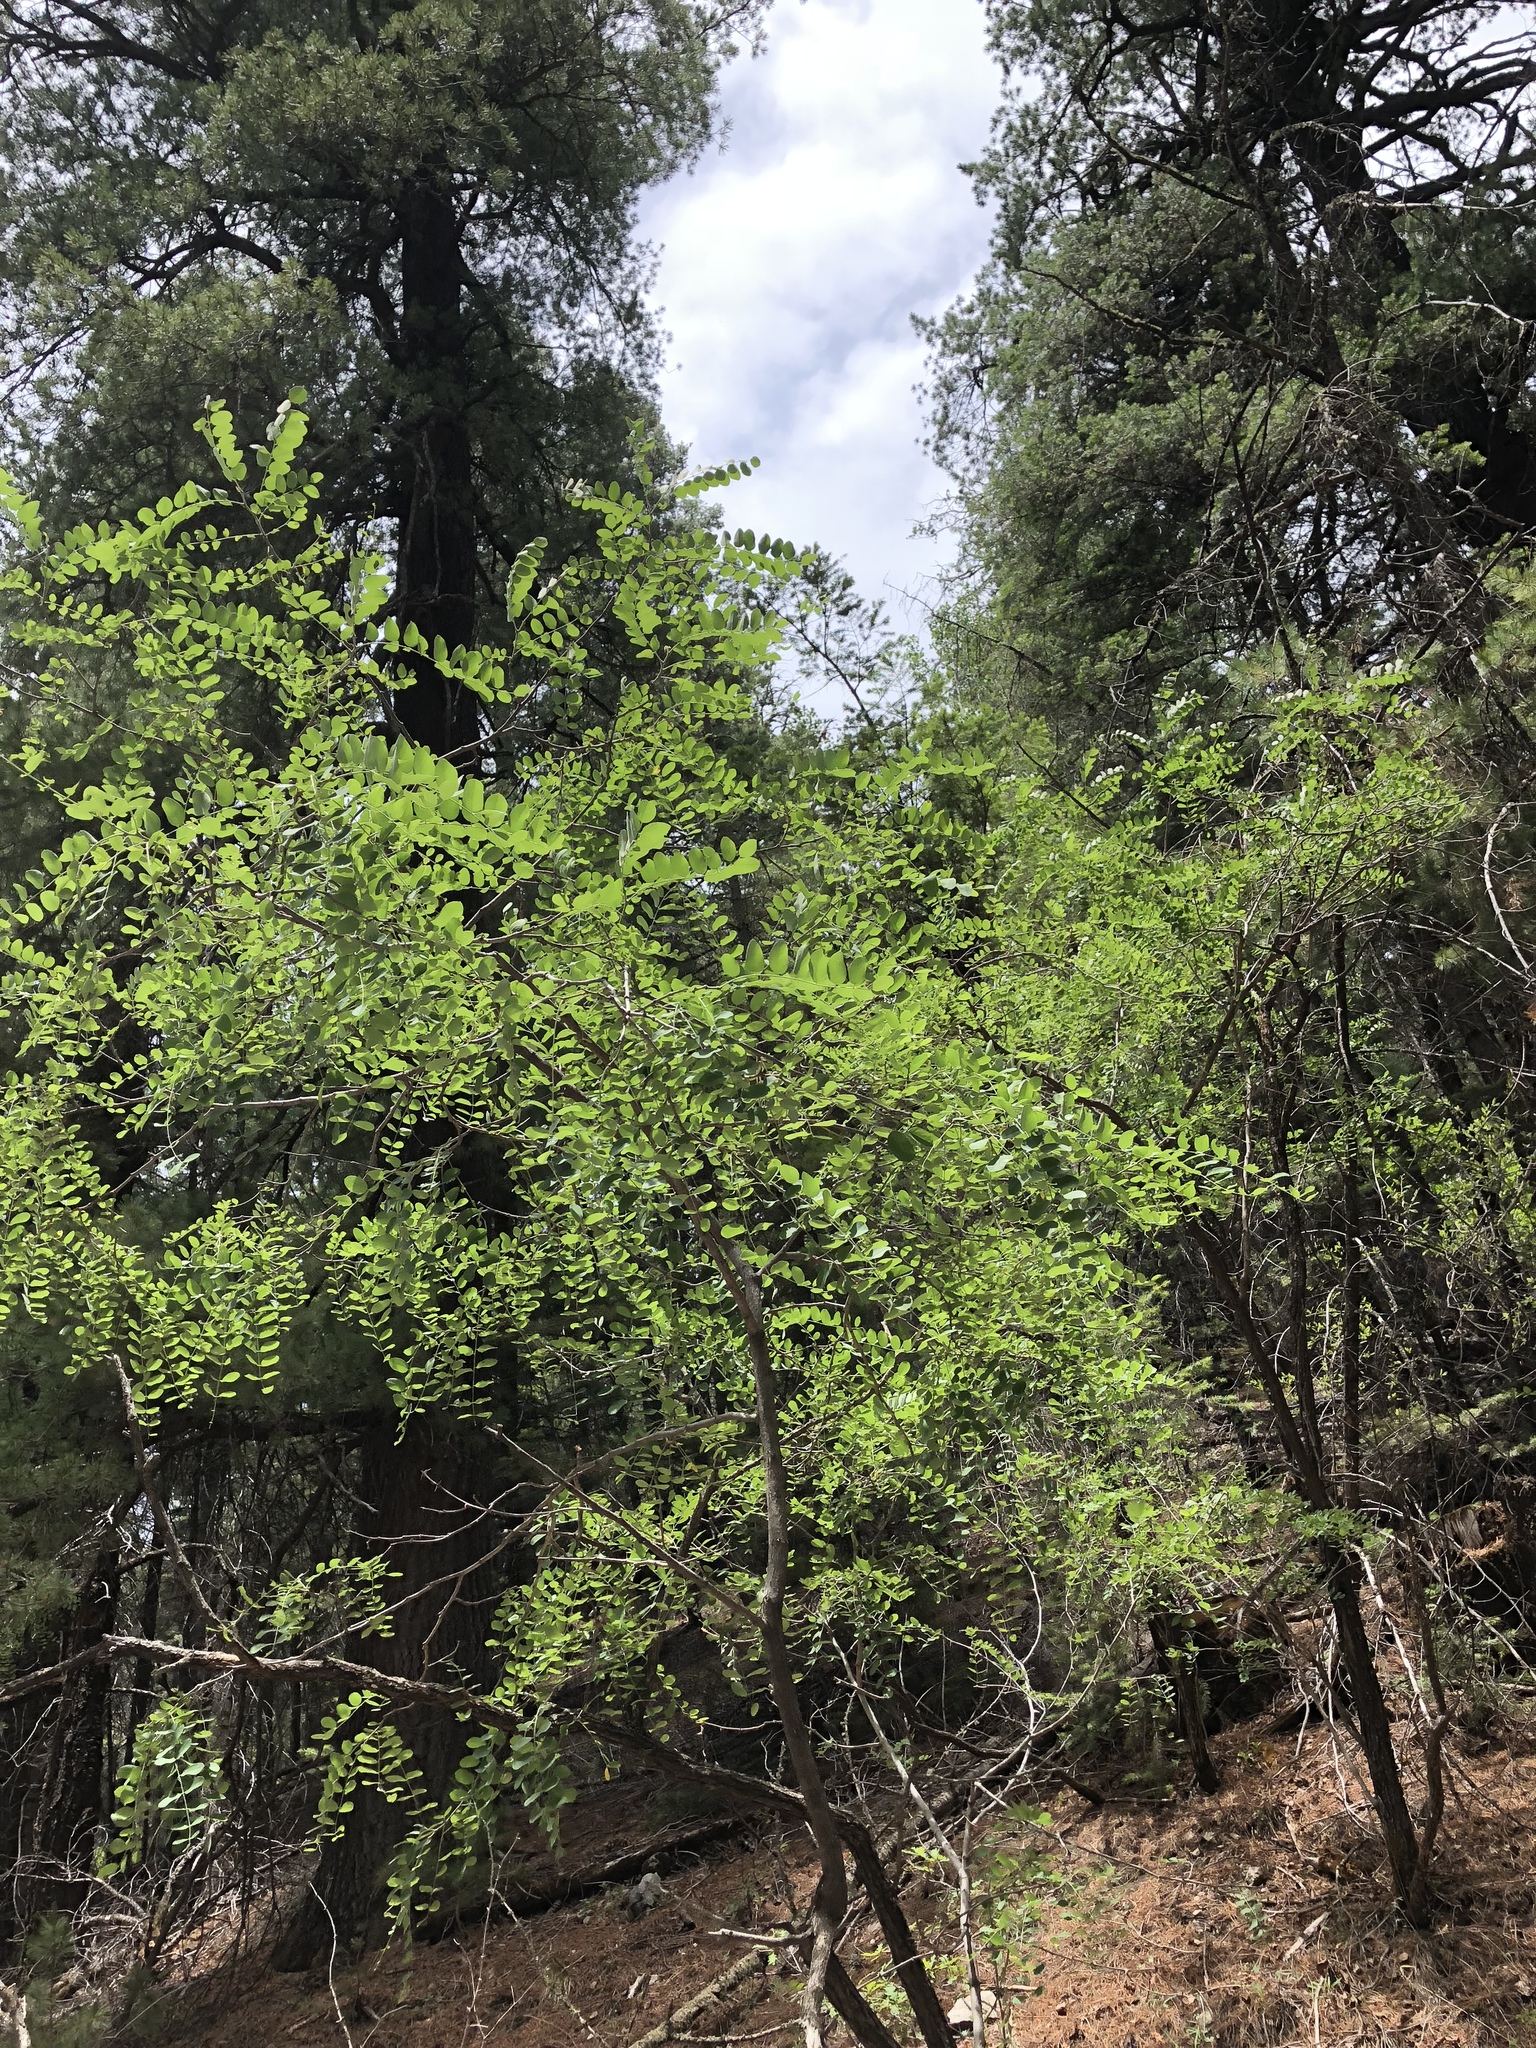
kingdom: Plantae
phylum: Tracheophyta
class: Magnoliopsida
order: Fabales
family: Fabaceae
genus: Robinia
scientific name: Robinia neomexicana
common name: New mexico locust
